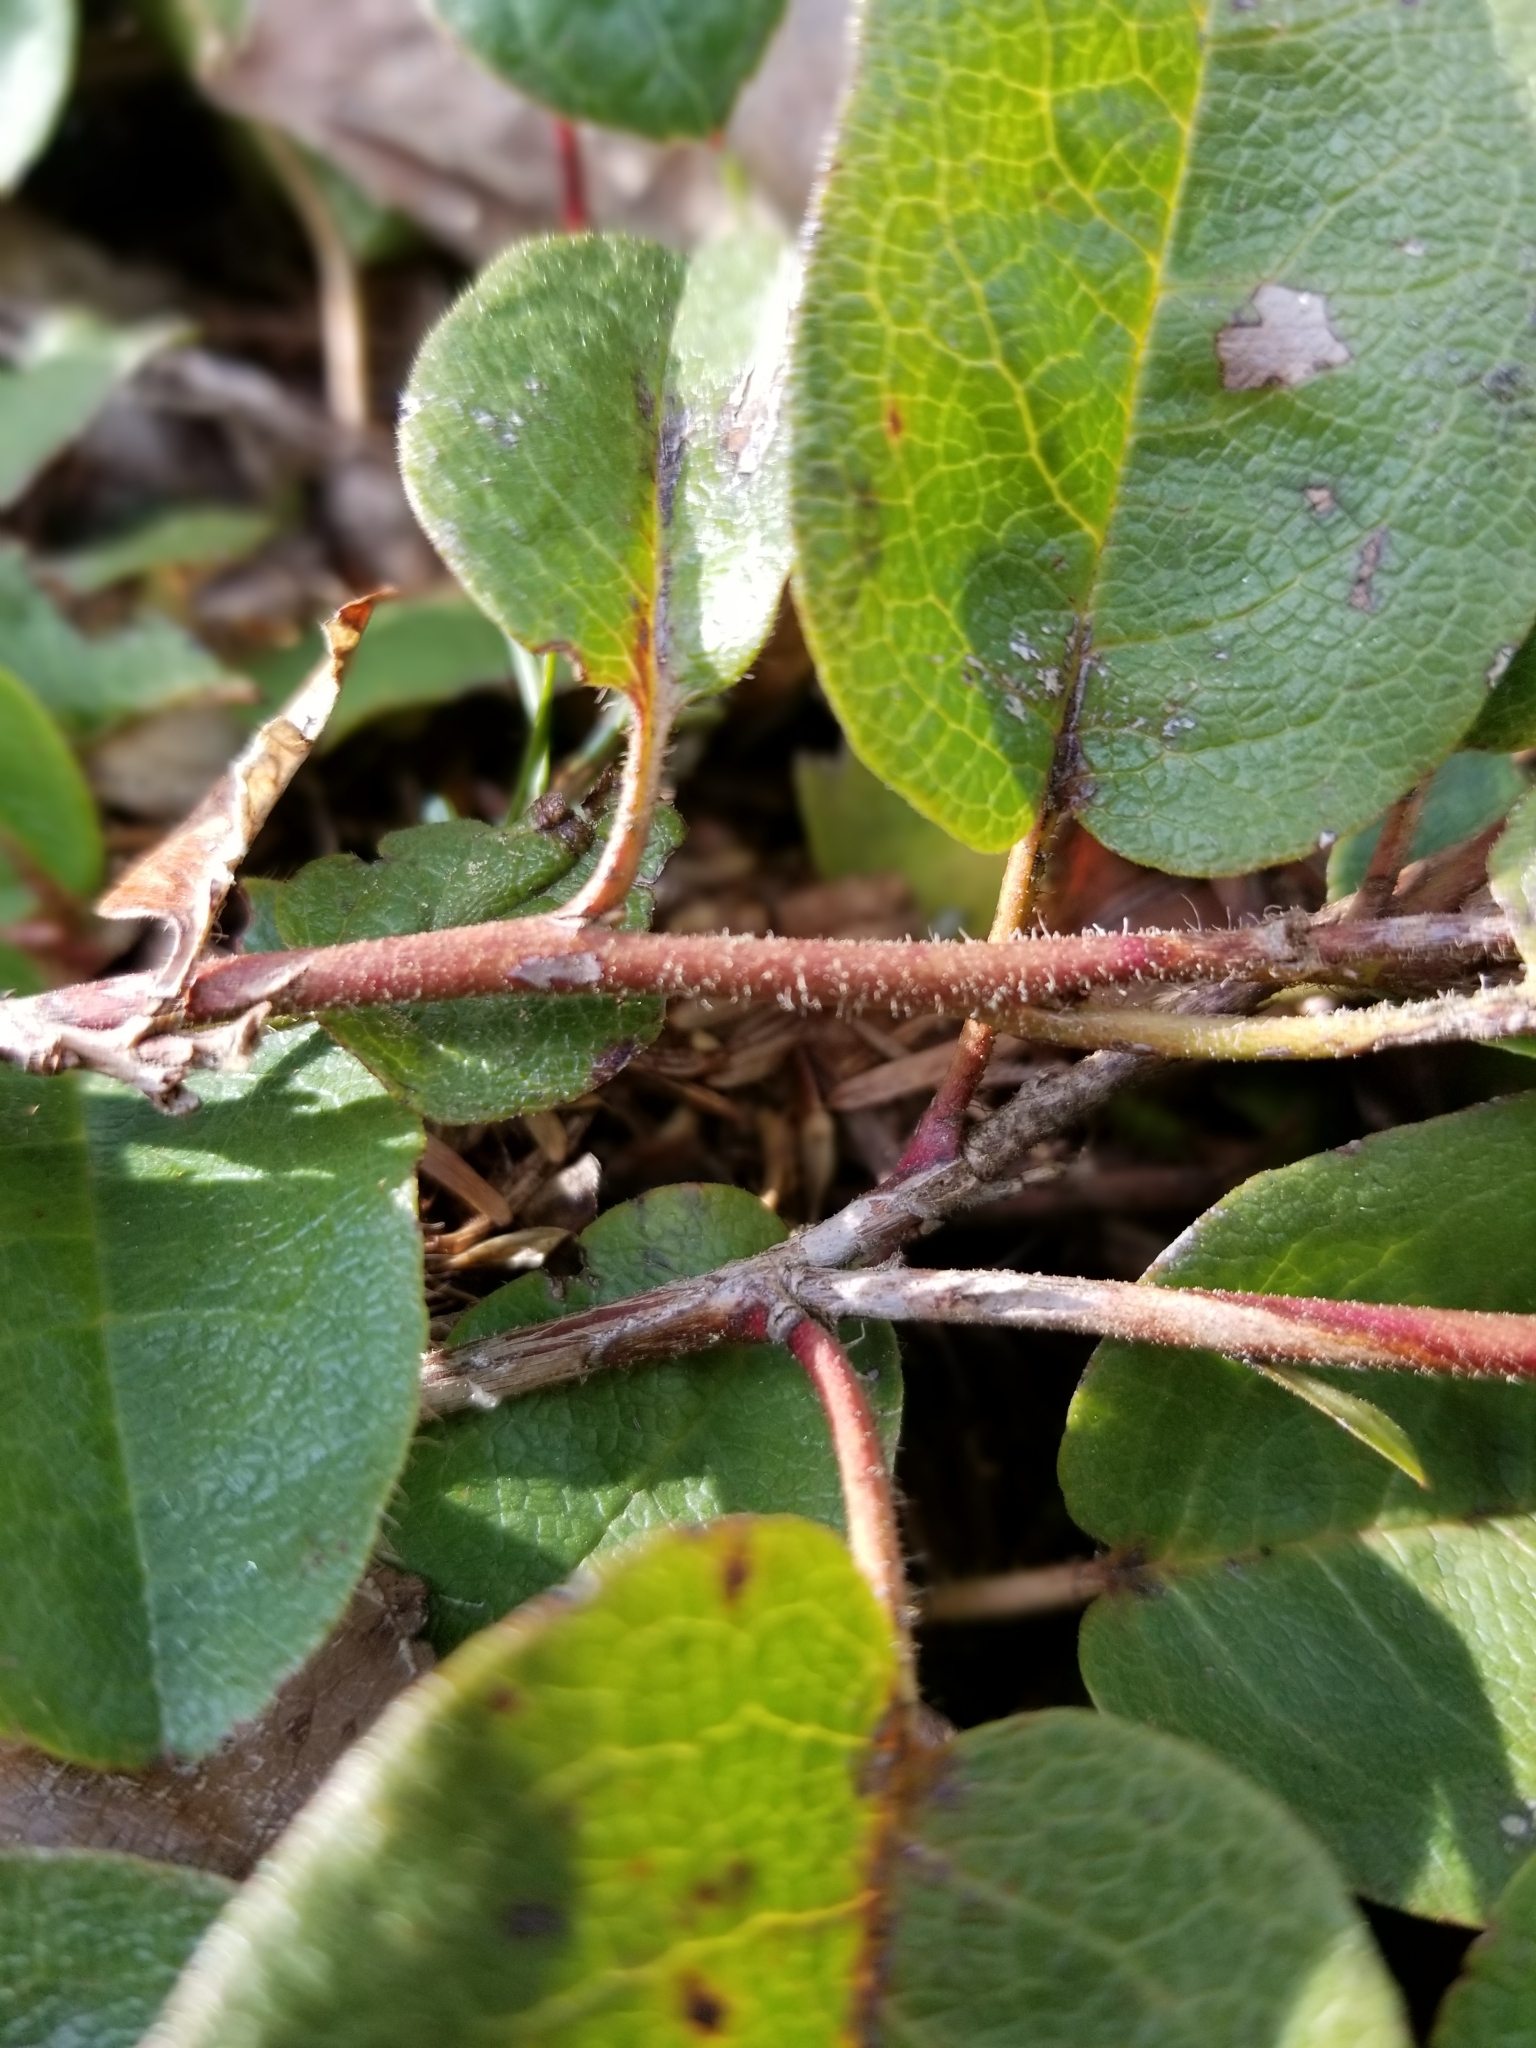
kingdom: Plantae
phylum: Tracheophyta
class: Magnoliopsida
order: Ericales
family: Ericaceae
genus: Epigaea
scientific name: Epigaea repens
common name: Gravelroot
